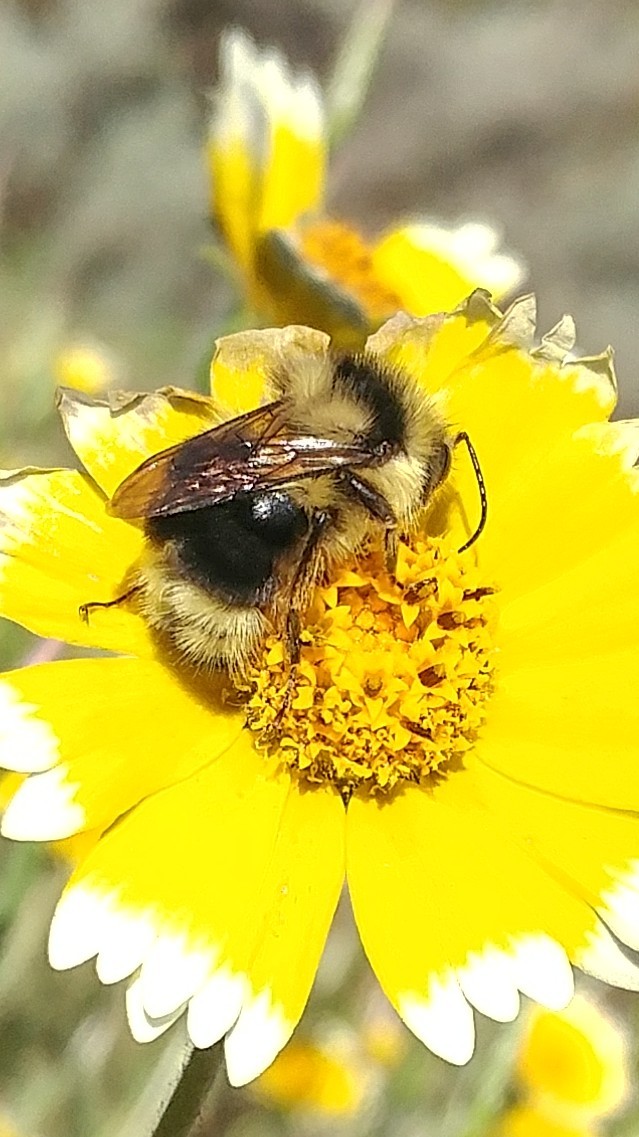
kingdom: Animalia
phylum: Arthropoda
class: Insecta
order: Hymenoptera
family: Apidae
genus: Bombus
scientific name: Bombus melanopygus
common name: Black tail bumble bee
